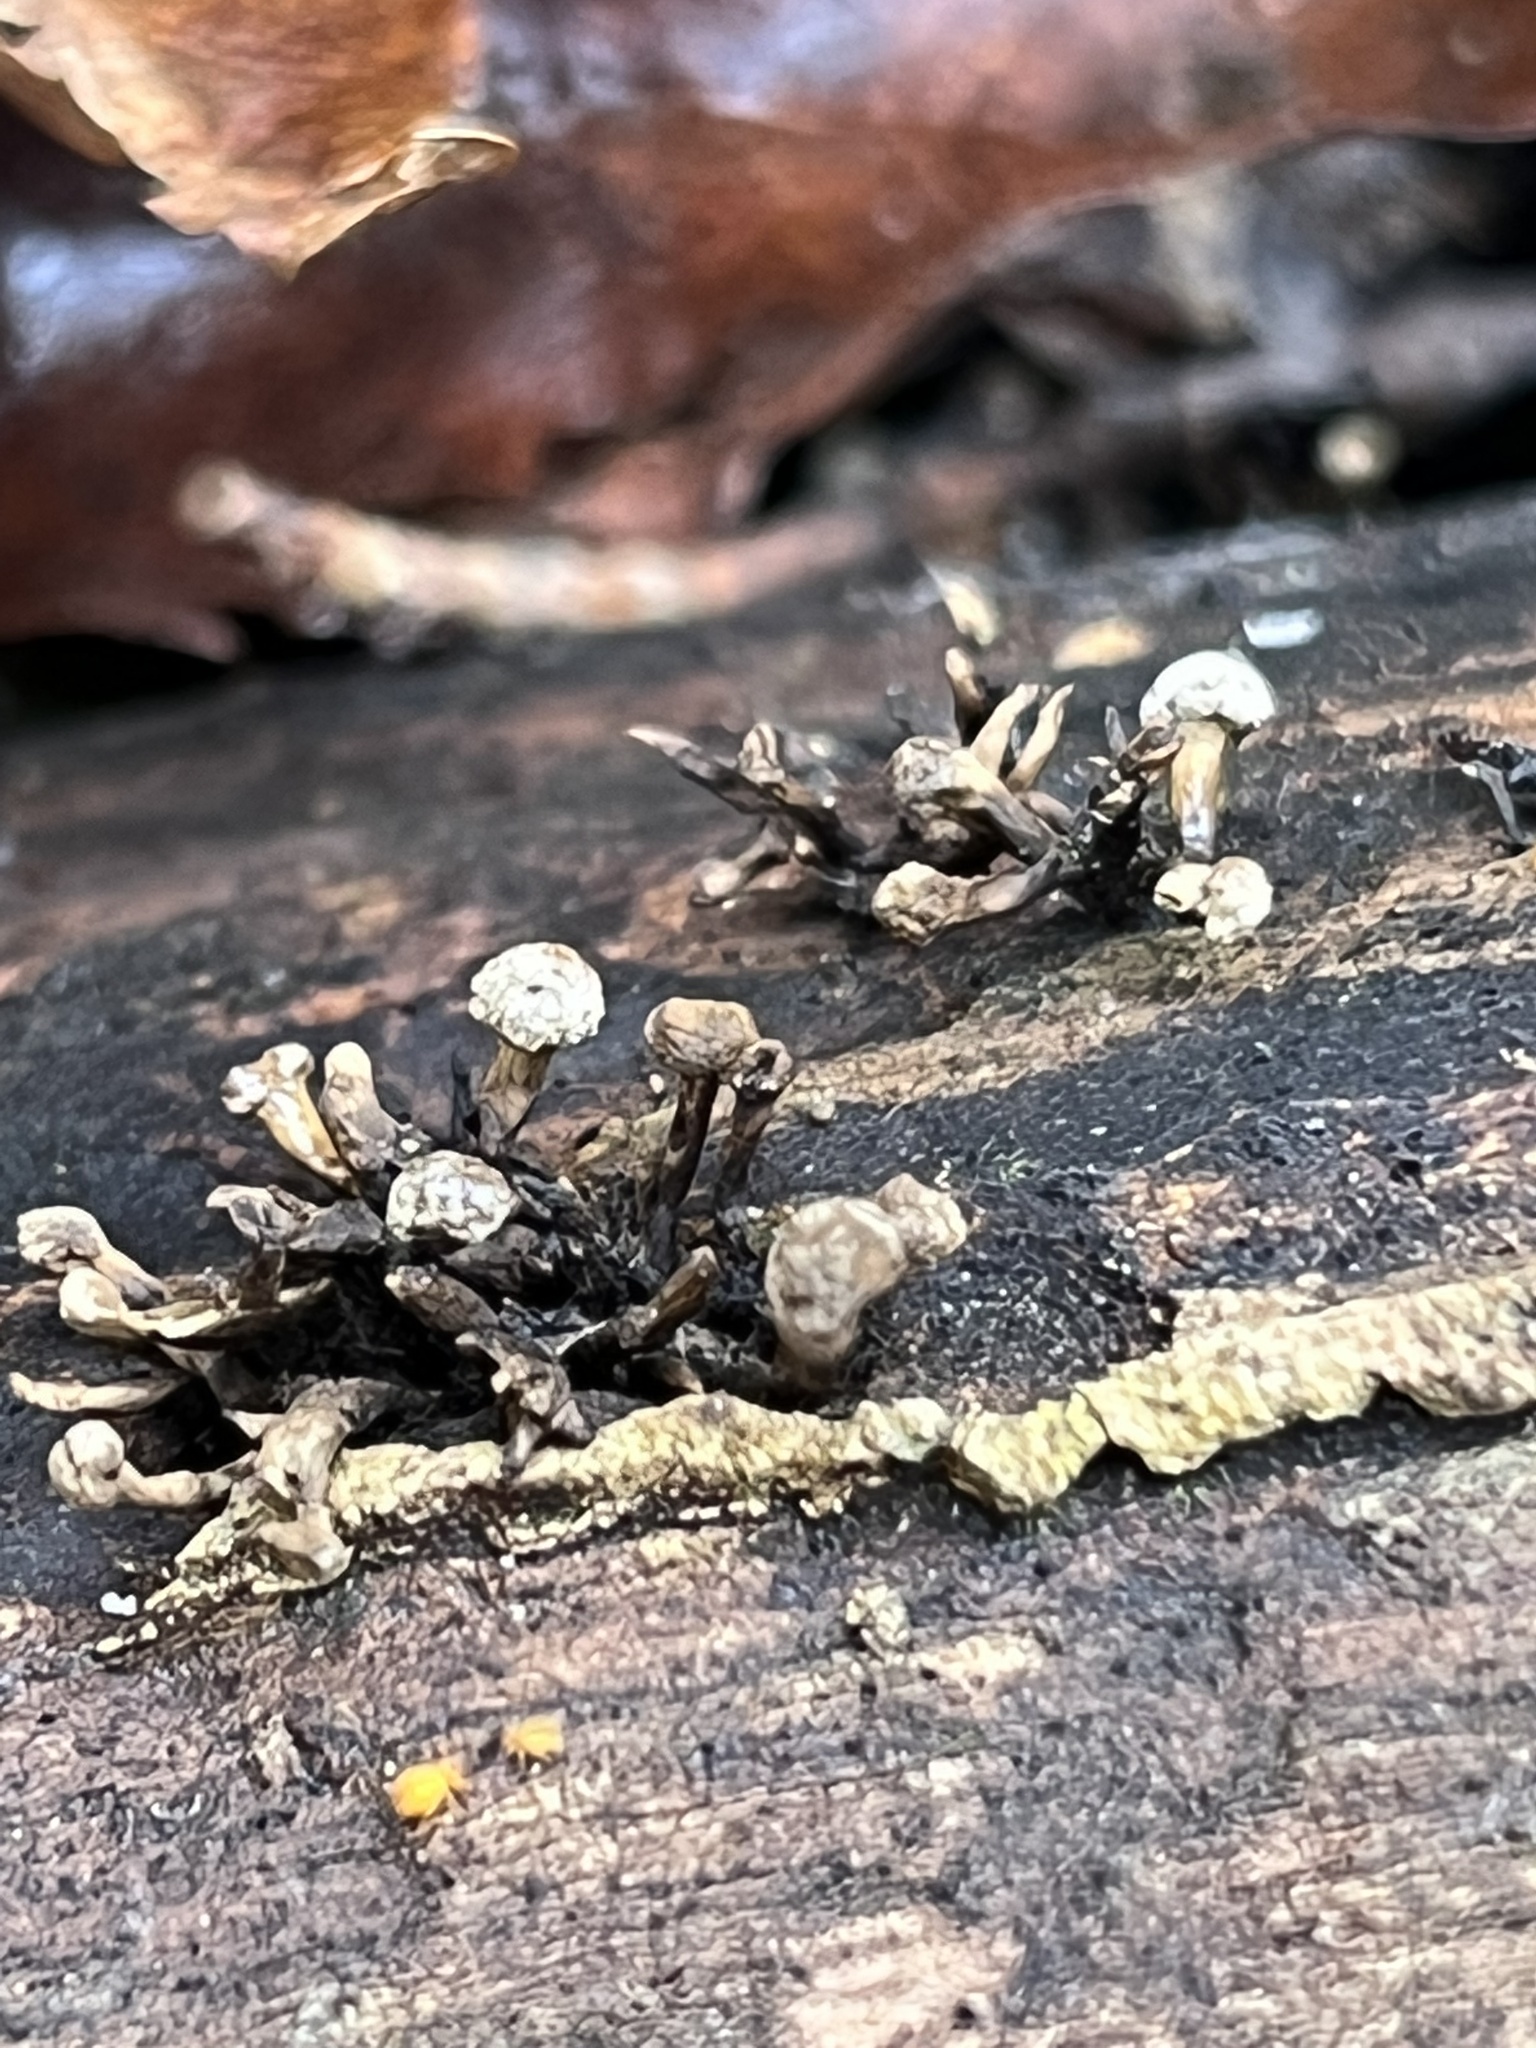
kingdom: Fungi
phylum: Basidiomycota
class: Atractiellomycetes
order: Atractiellales
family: Phleogenaceae
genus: Phleogena
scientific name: Phleogena faginea
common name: Fenugreek stalkball
